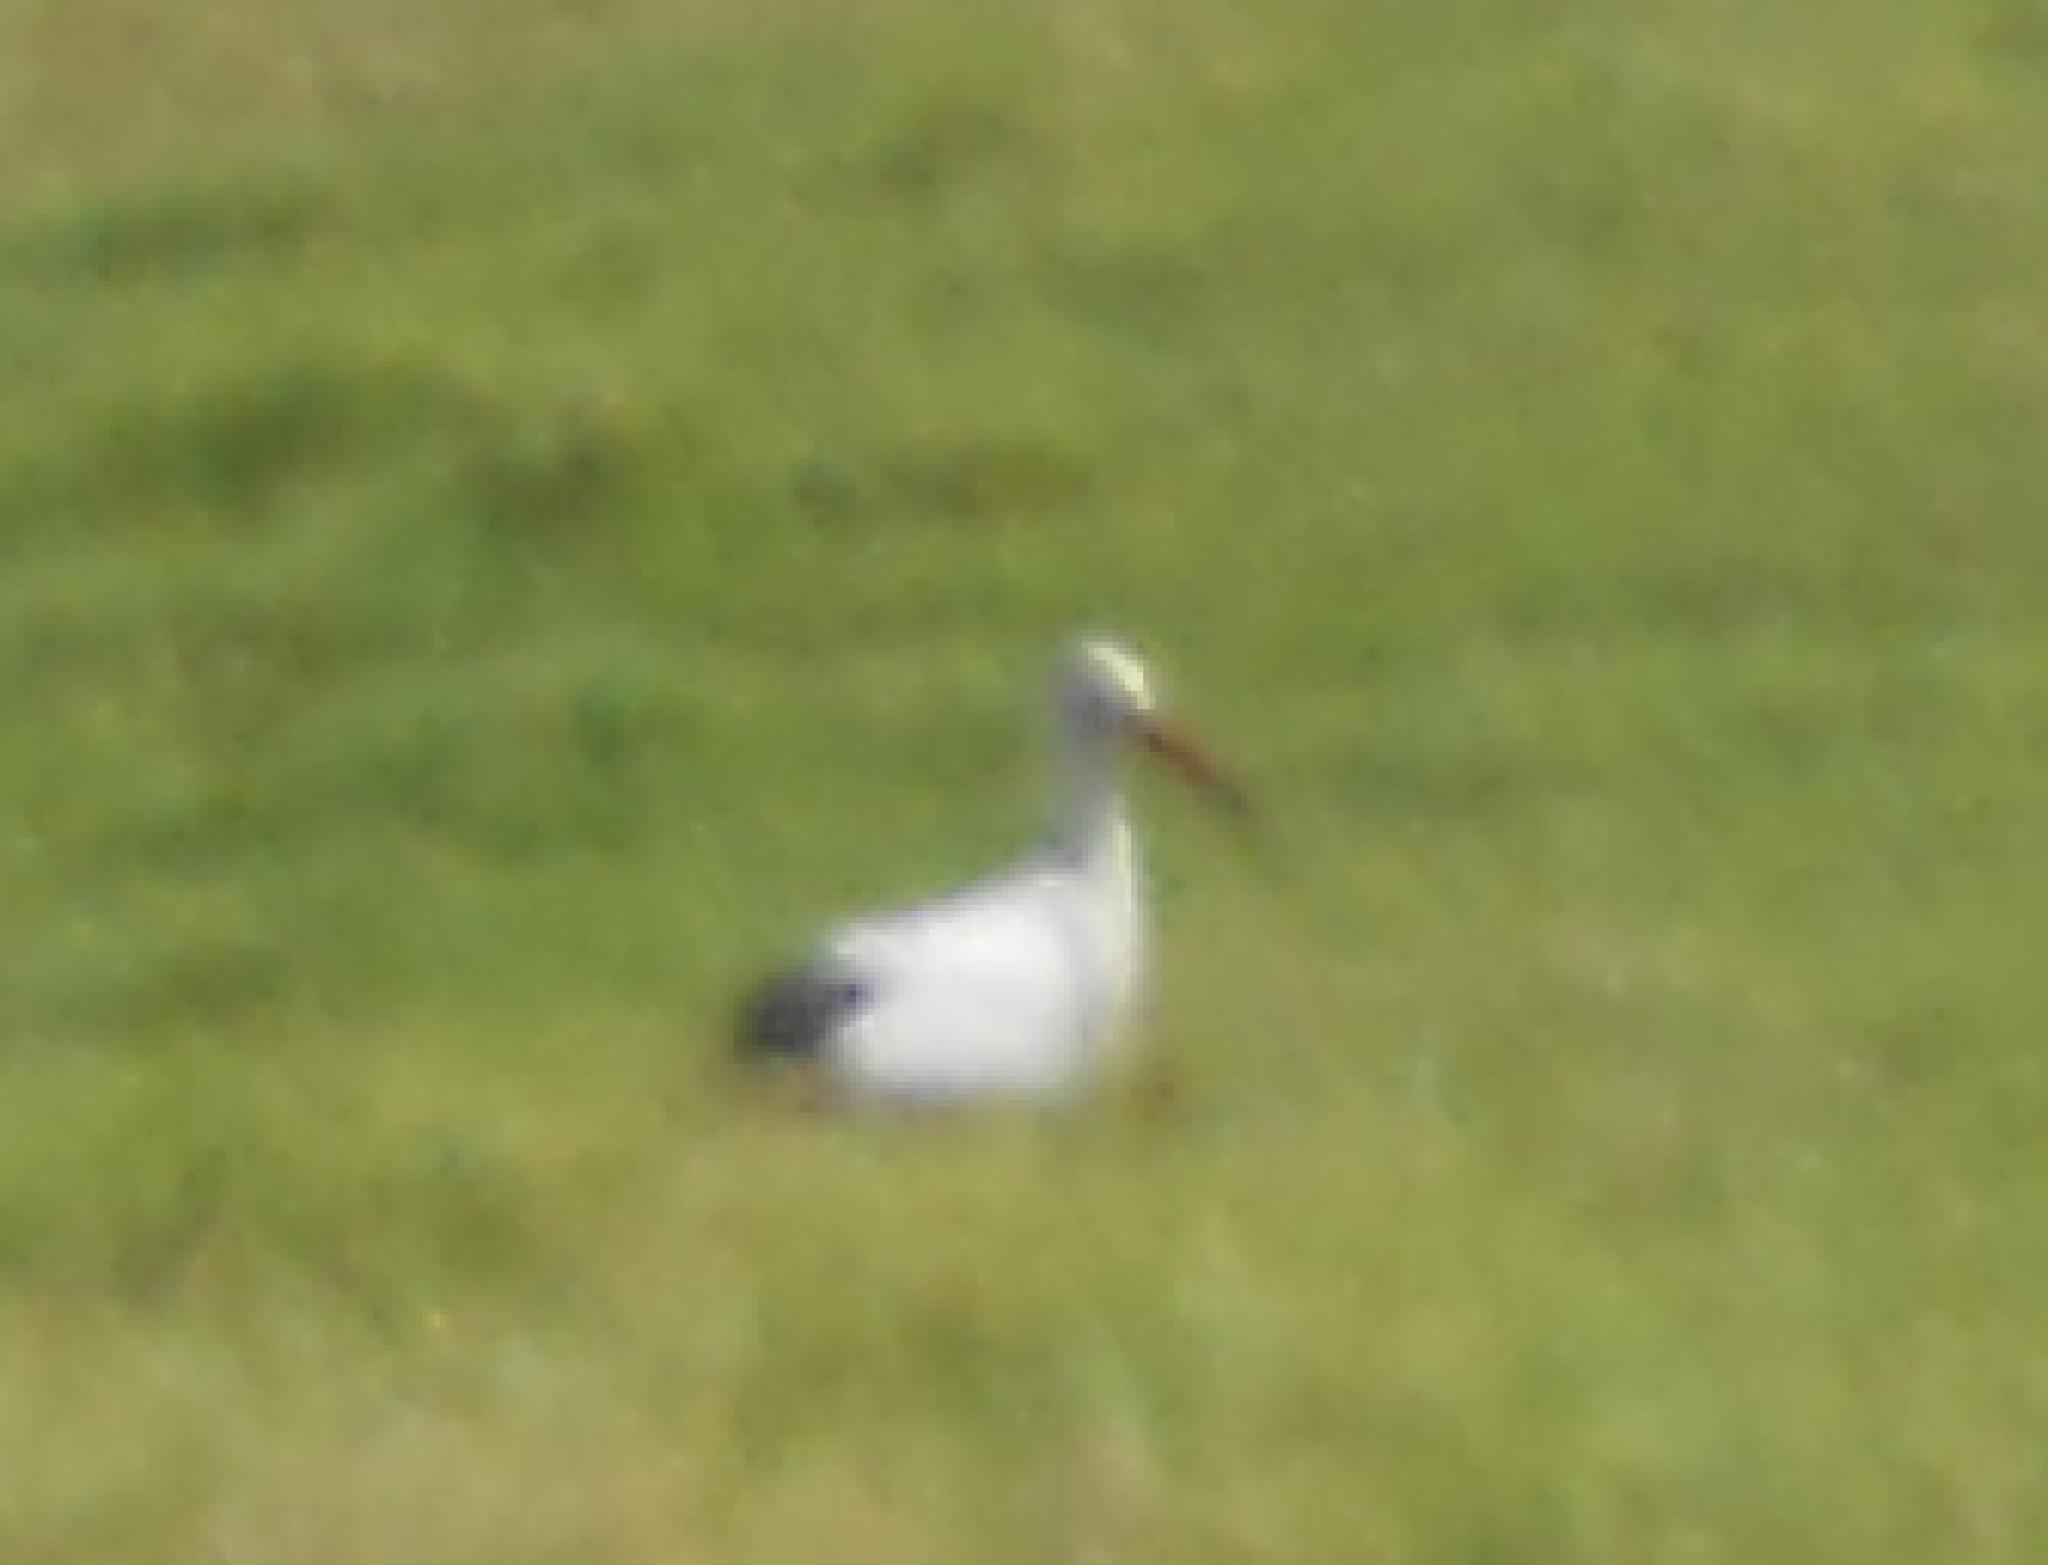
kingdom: Animalia
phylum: Chordata
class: Aves
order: Ciconiiformes
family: Ciconiidae
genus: Ciconia
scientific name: Ciconia ciconia
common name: White stork
